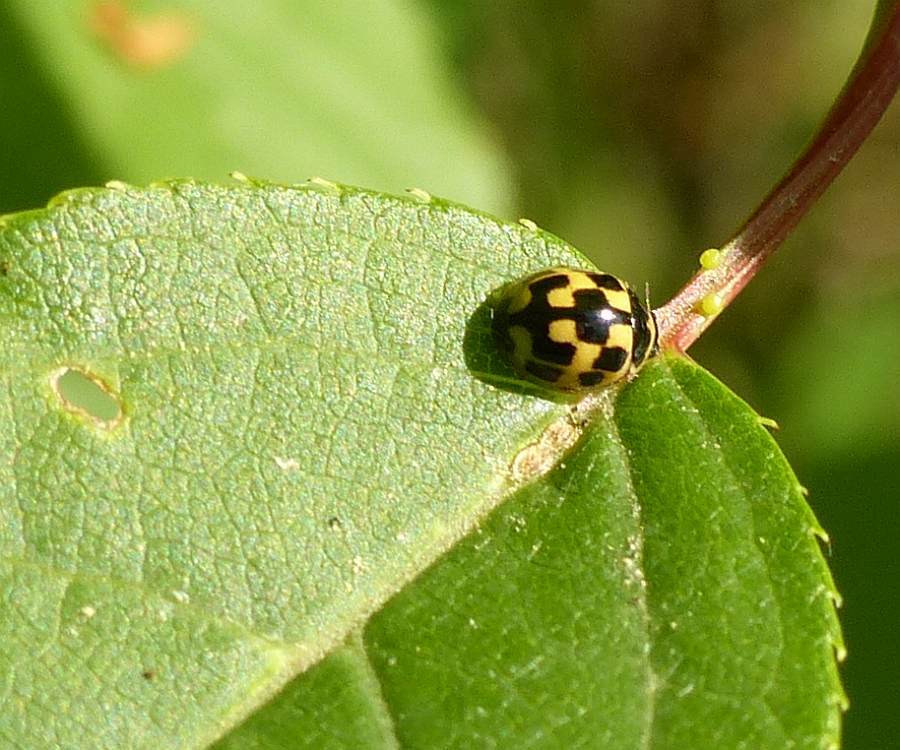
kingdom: Animalia
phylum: Arthropoda
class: Insecta
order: Coleoptera
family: Coccinellidae
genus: Propylaea
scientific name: Propylaea quatuordecimpunctata
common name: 14-spotted ladybird beetle
